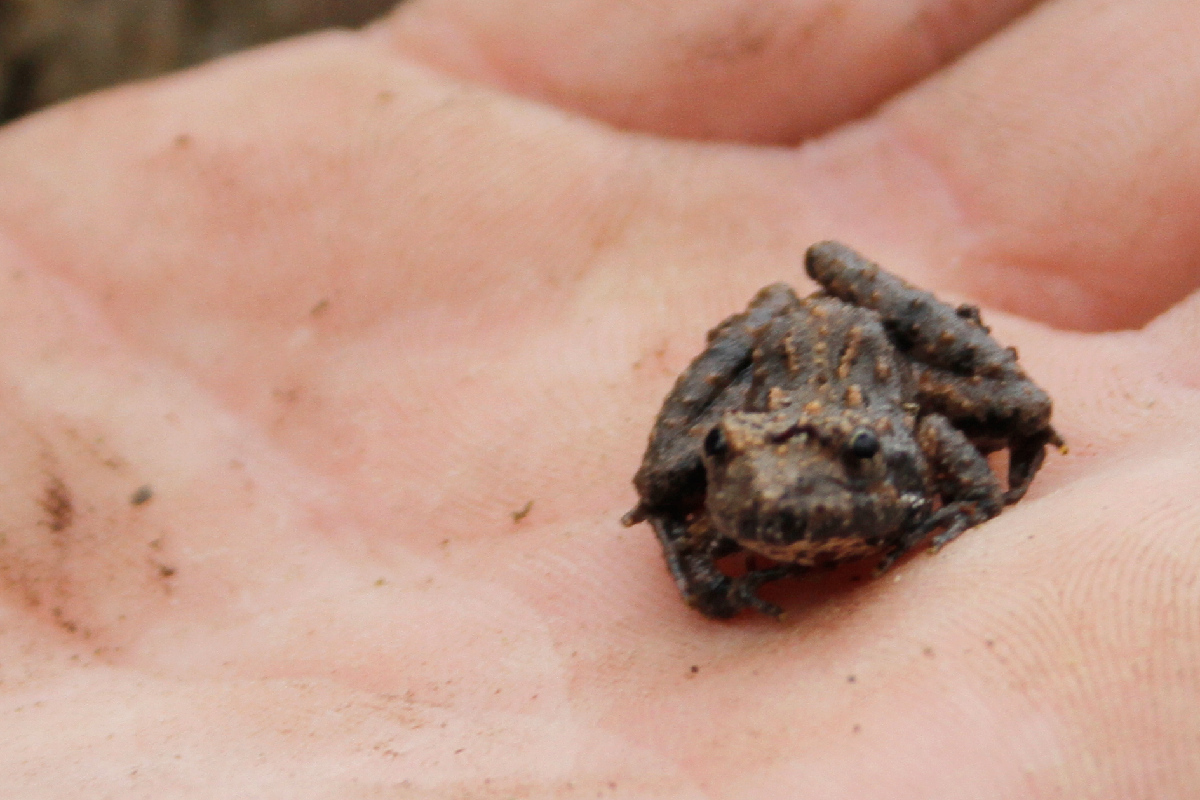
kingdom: Animalia
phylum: Chordata
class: Amphibia
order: Anura
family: Hylidae
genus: Acris
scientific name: Acris gryllus
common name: Southern cricket frog
